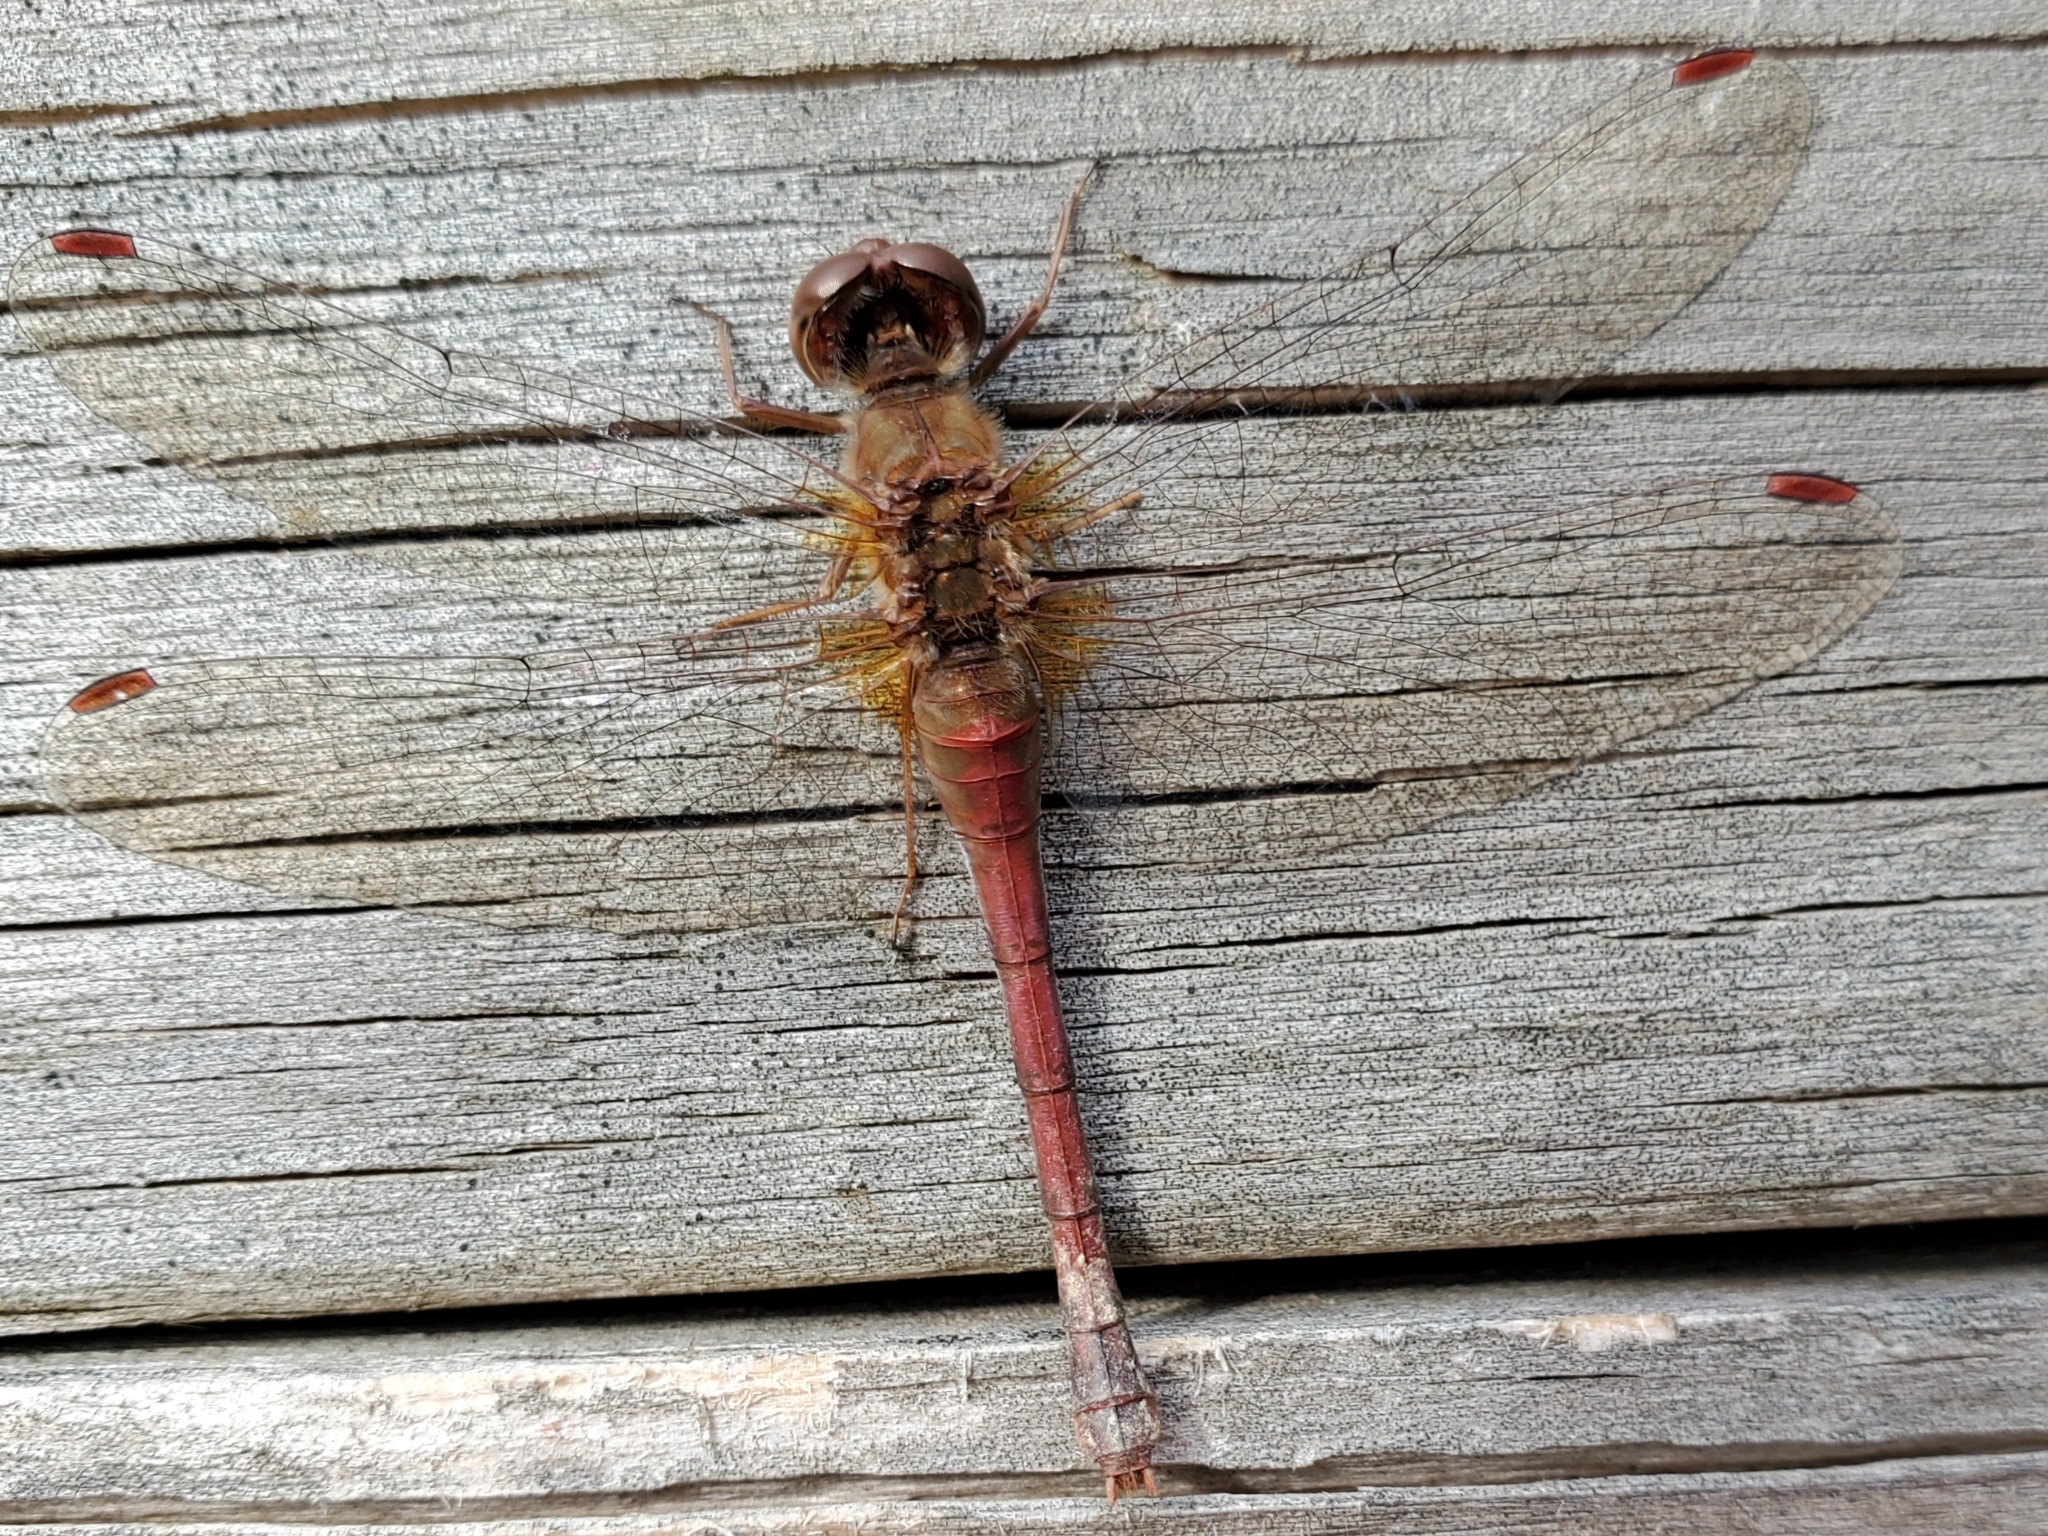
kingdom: Animalia
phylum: Arthropoda
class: Insecta
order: Odonata
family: Libellulidae
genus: Sympetrum
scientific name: Sympetrum vicinum
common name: Autumn meadowhawk
